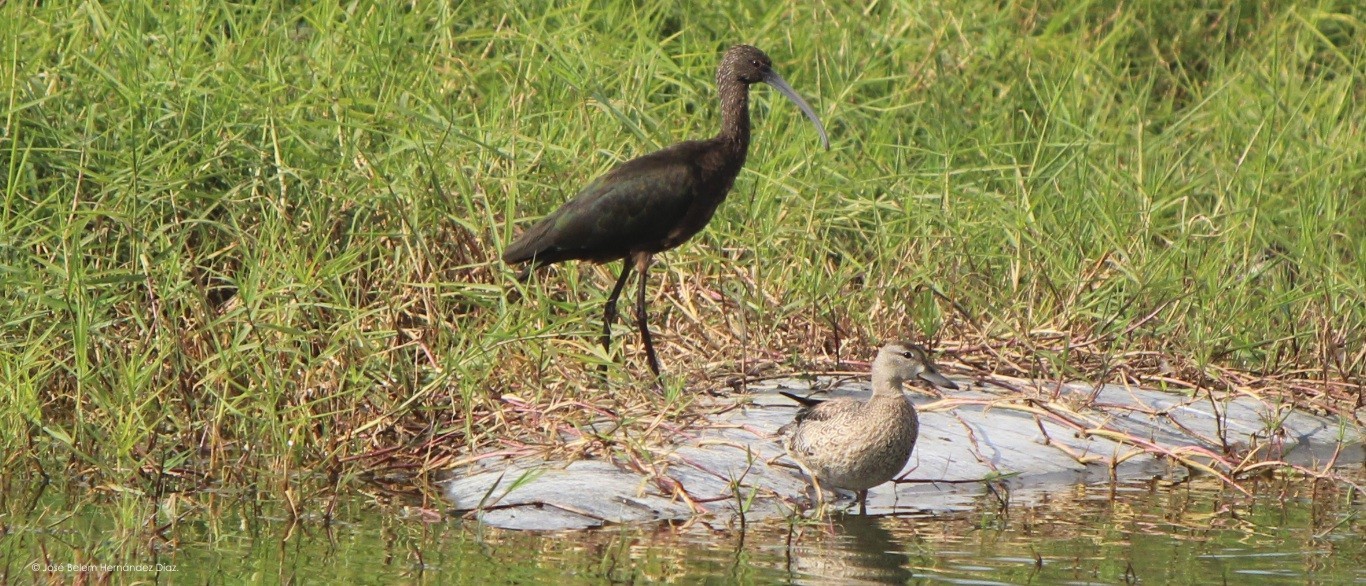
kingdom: Animalia
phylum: Chordata
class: Aves
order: Pelecaniformes
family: Threskiornithidae
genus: Plegadis
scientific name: Plegadis chihi
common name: White-faced ibis
